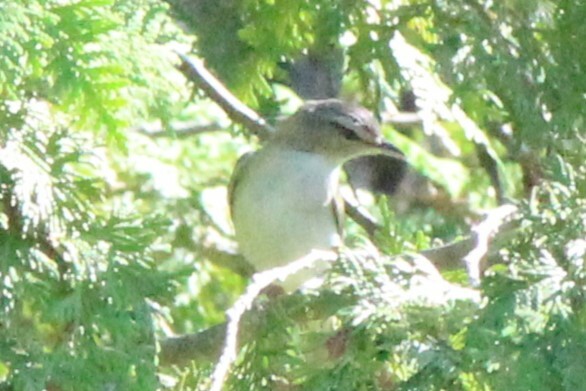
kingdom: Animalia
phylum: Chordata
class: Aves
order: Passeriformes
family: Vireonidae
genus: Vireo
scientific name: Vireo olivaceus
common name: Red-eyed vireo
